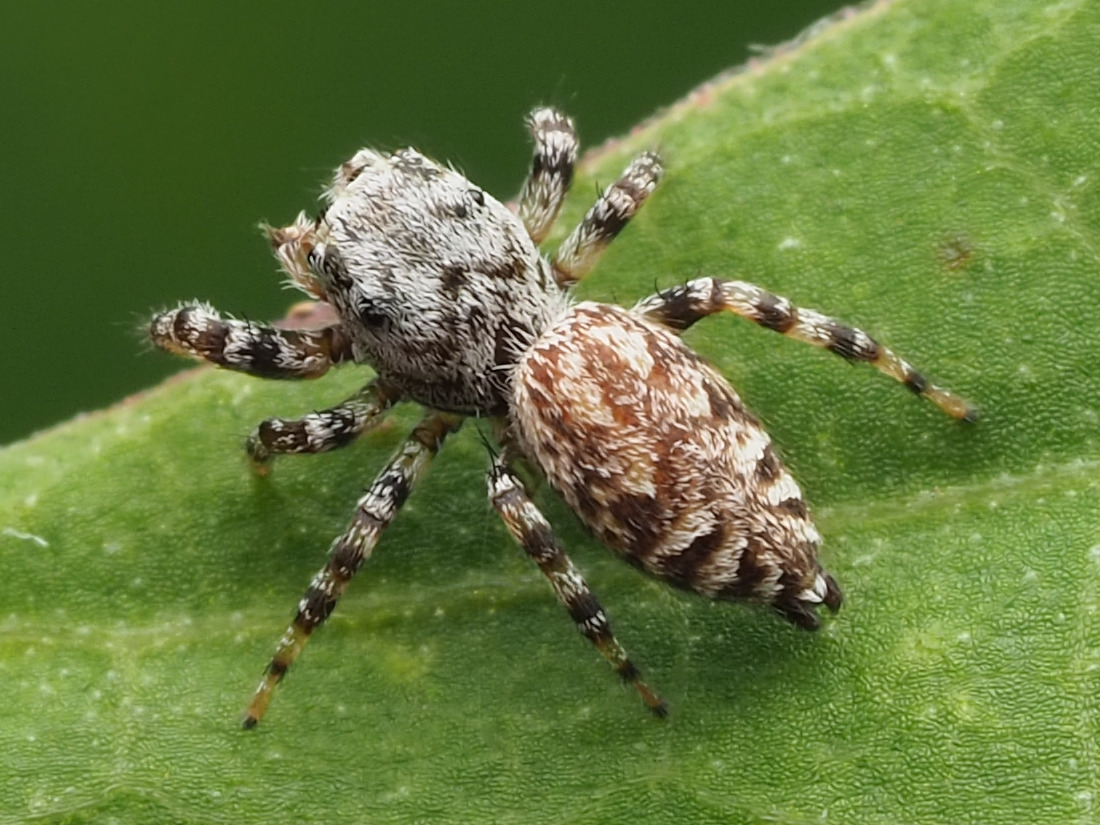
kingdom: Animalia
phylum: Arthropoda
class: Arachnida
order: Araneae
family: Salticidae
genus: Pelegrina
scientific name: Pelegrina galathea
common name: Jumping spiders
